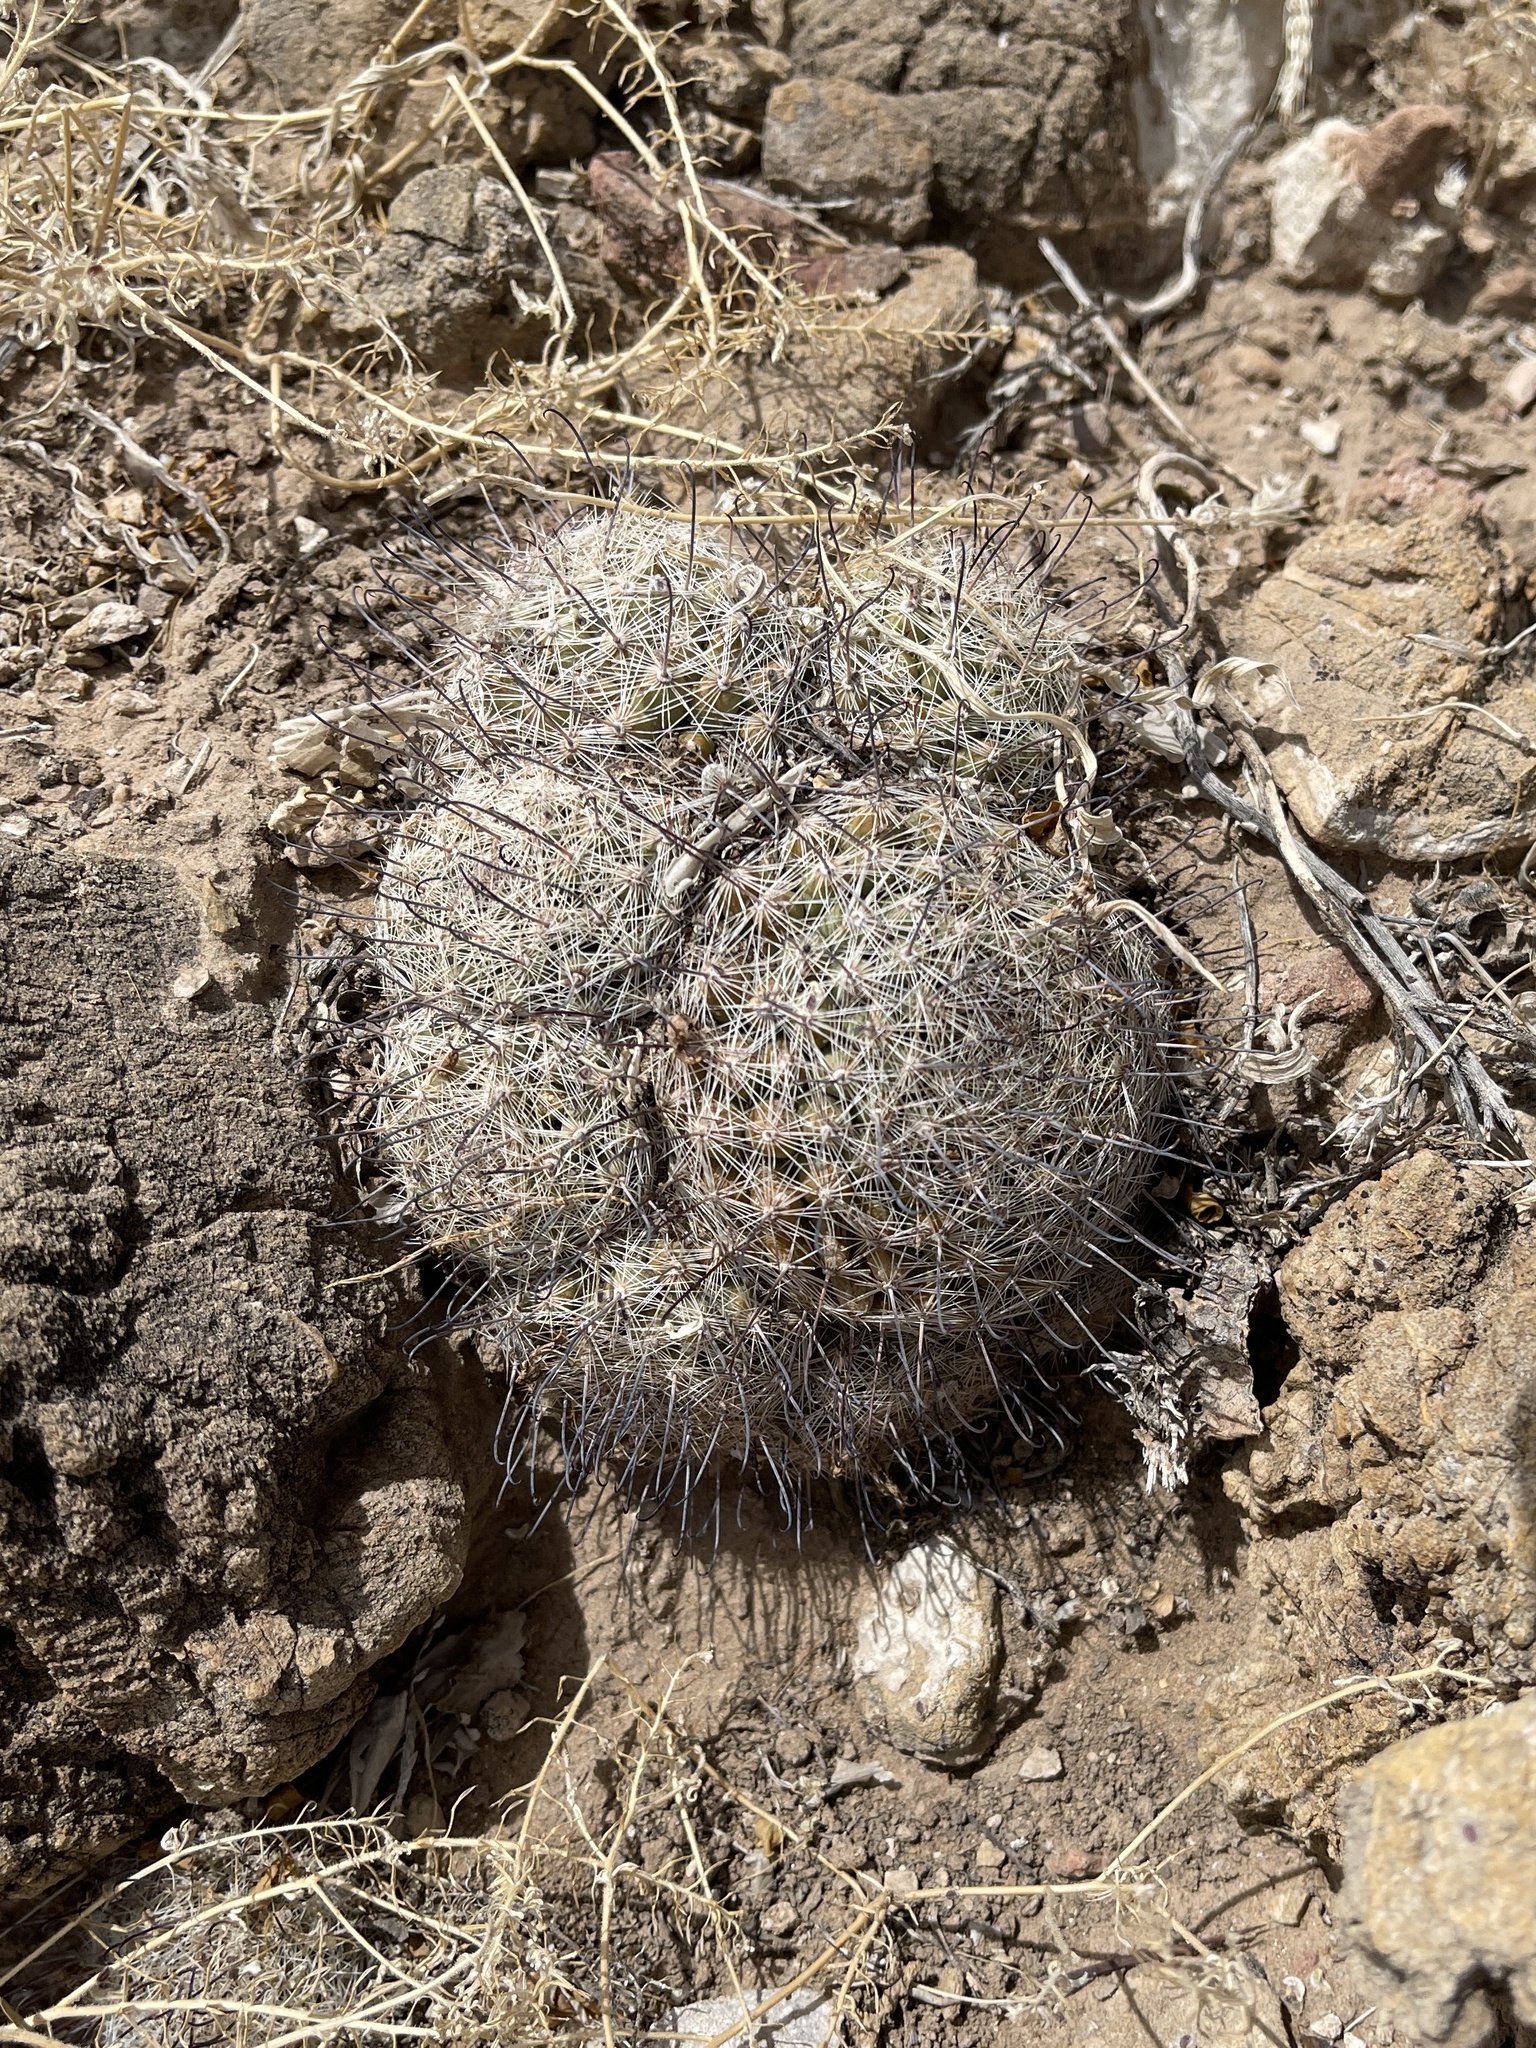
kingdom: Plantae
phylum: Tracheophyta
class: Magnoliopsida
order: Caryophyllales
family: Cactaceae
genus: Cochemiea
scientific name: Cochemiea grahamii
